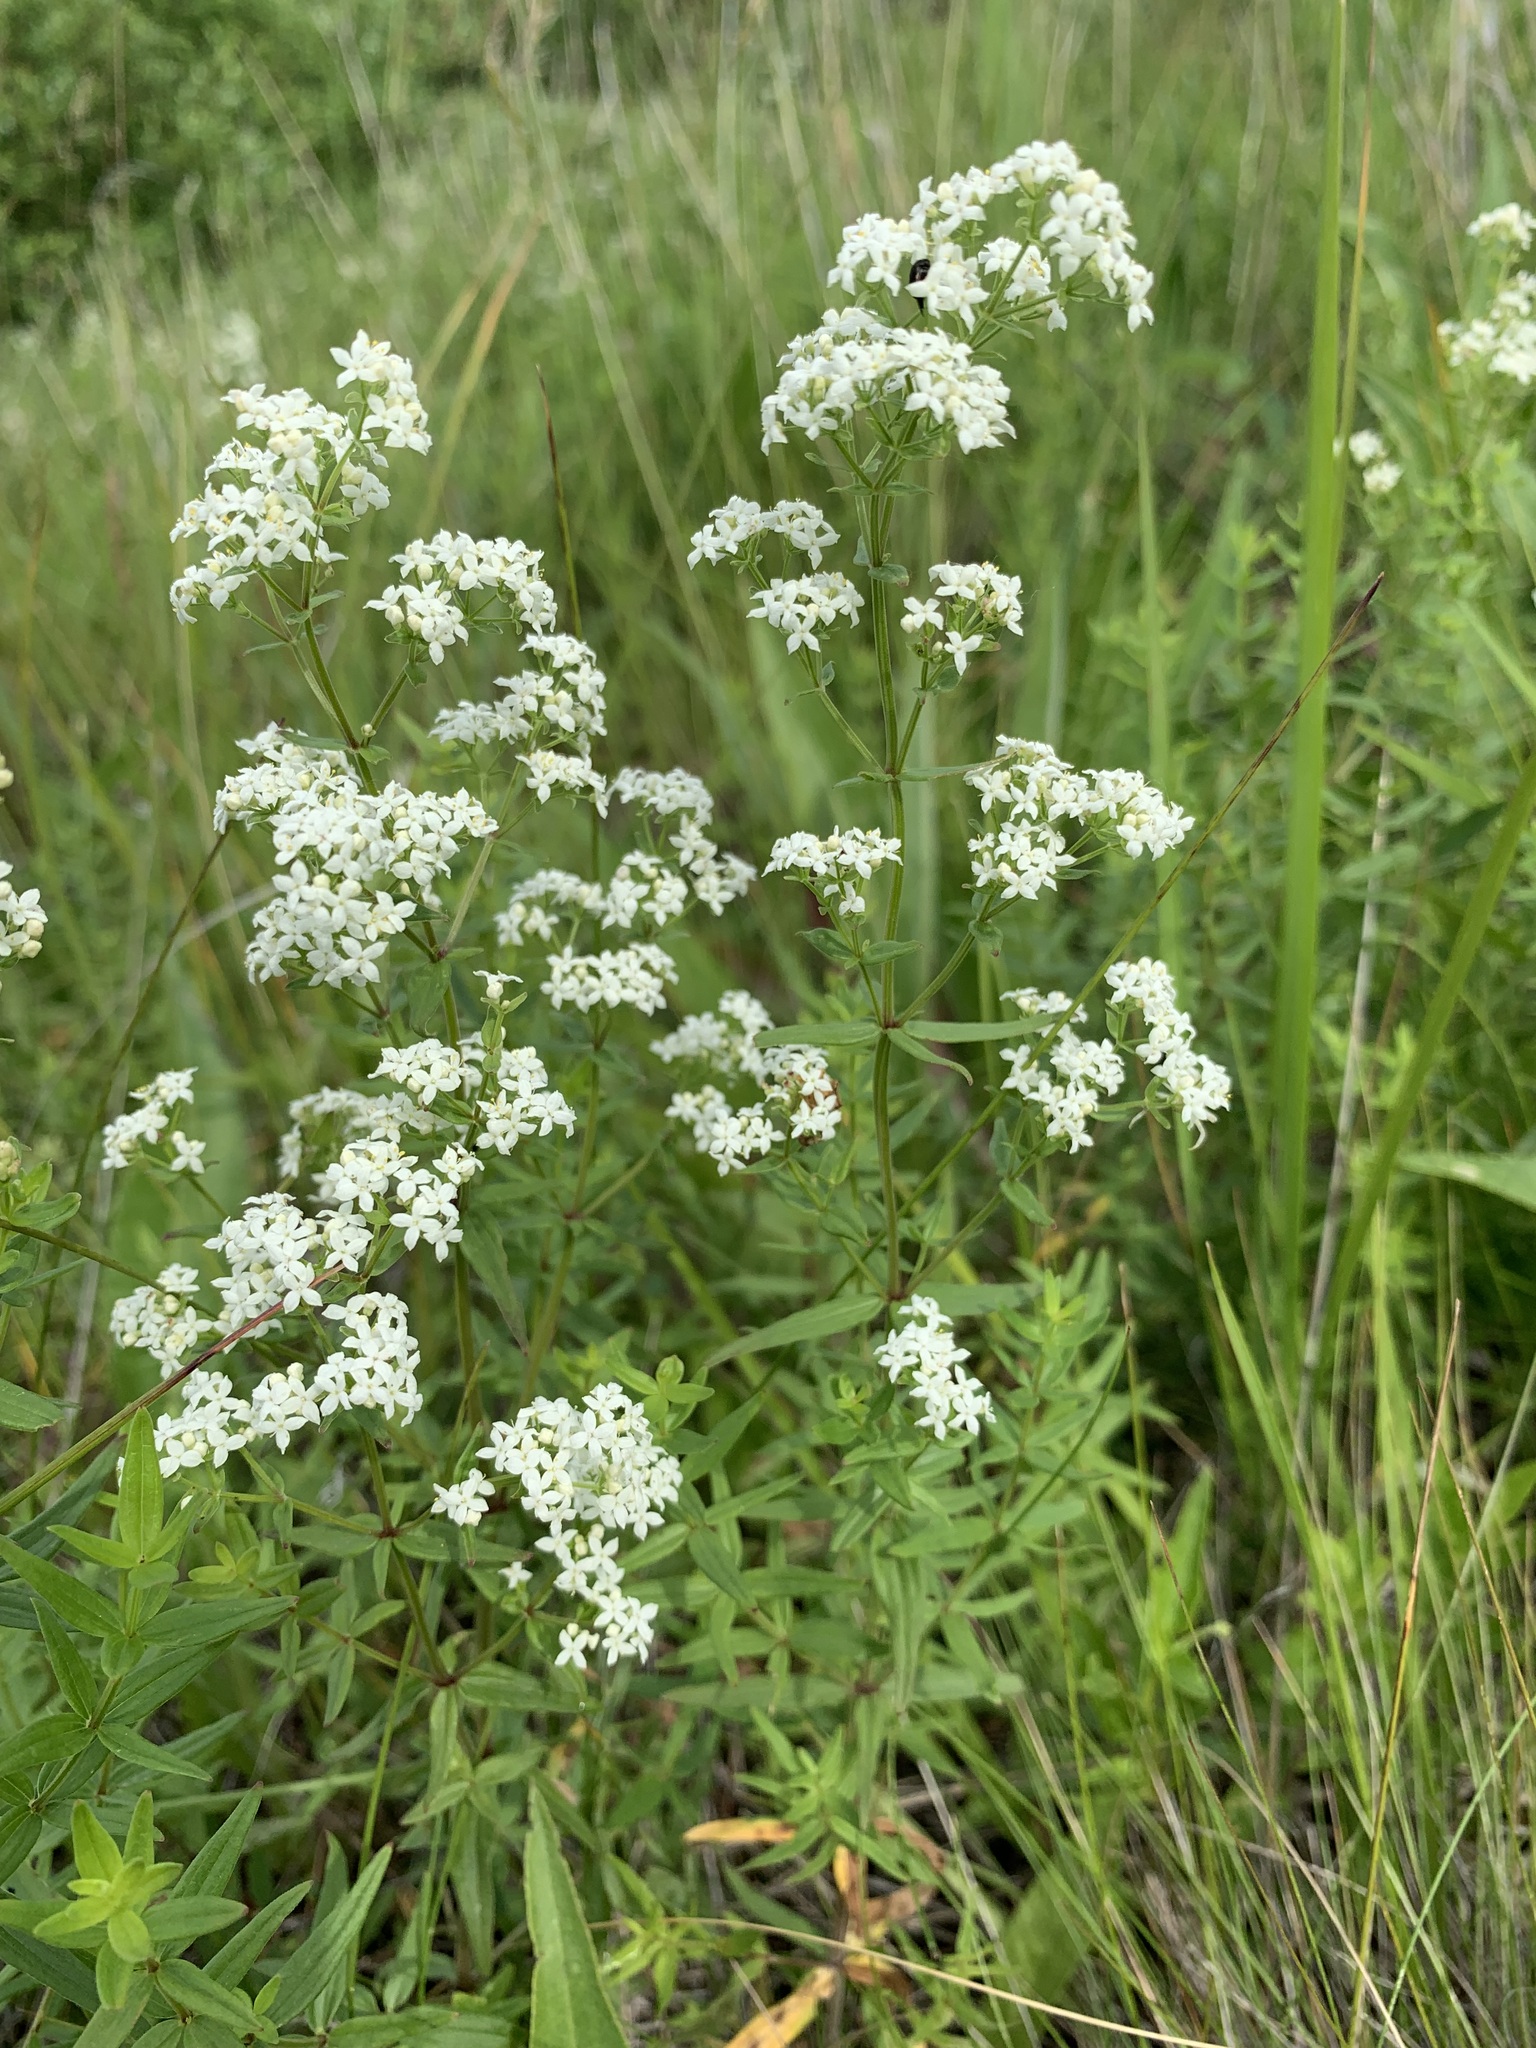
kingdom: Plantae
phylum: Tracheophyta
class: Magnoliopsida
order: Gentianales
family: Rubiaceae
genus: Galium
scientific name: Galium rubioides
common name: European bedstraw
